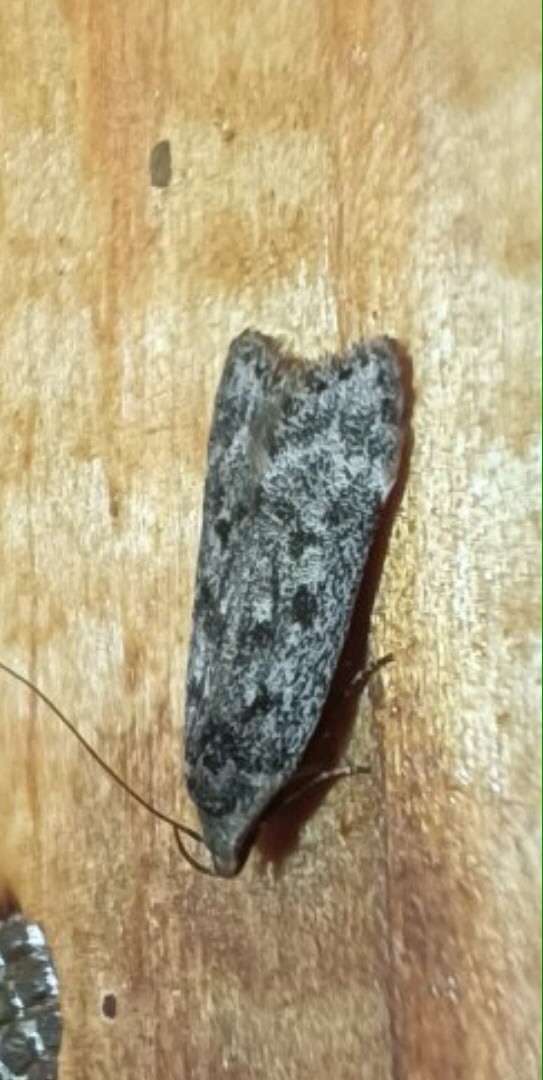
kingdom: Animalia
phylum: Arthropoda
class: Insecta
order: Lepidoptera
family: Gelechiidae
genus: Anacampsis
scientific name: Anacampsis populella
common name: Poplar leafroller
